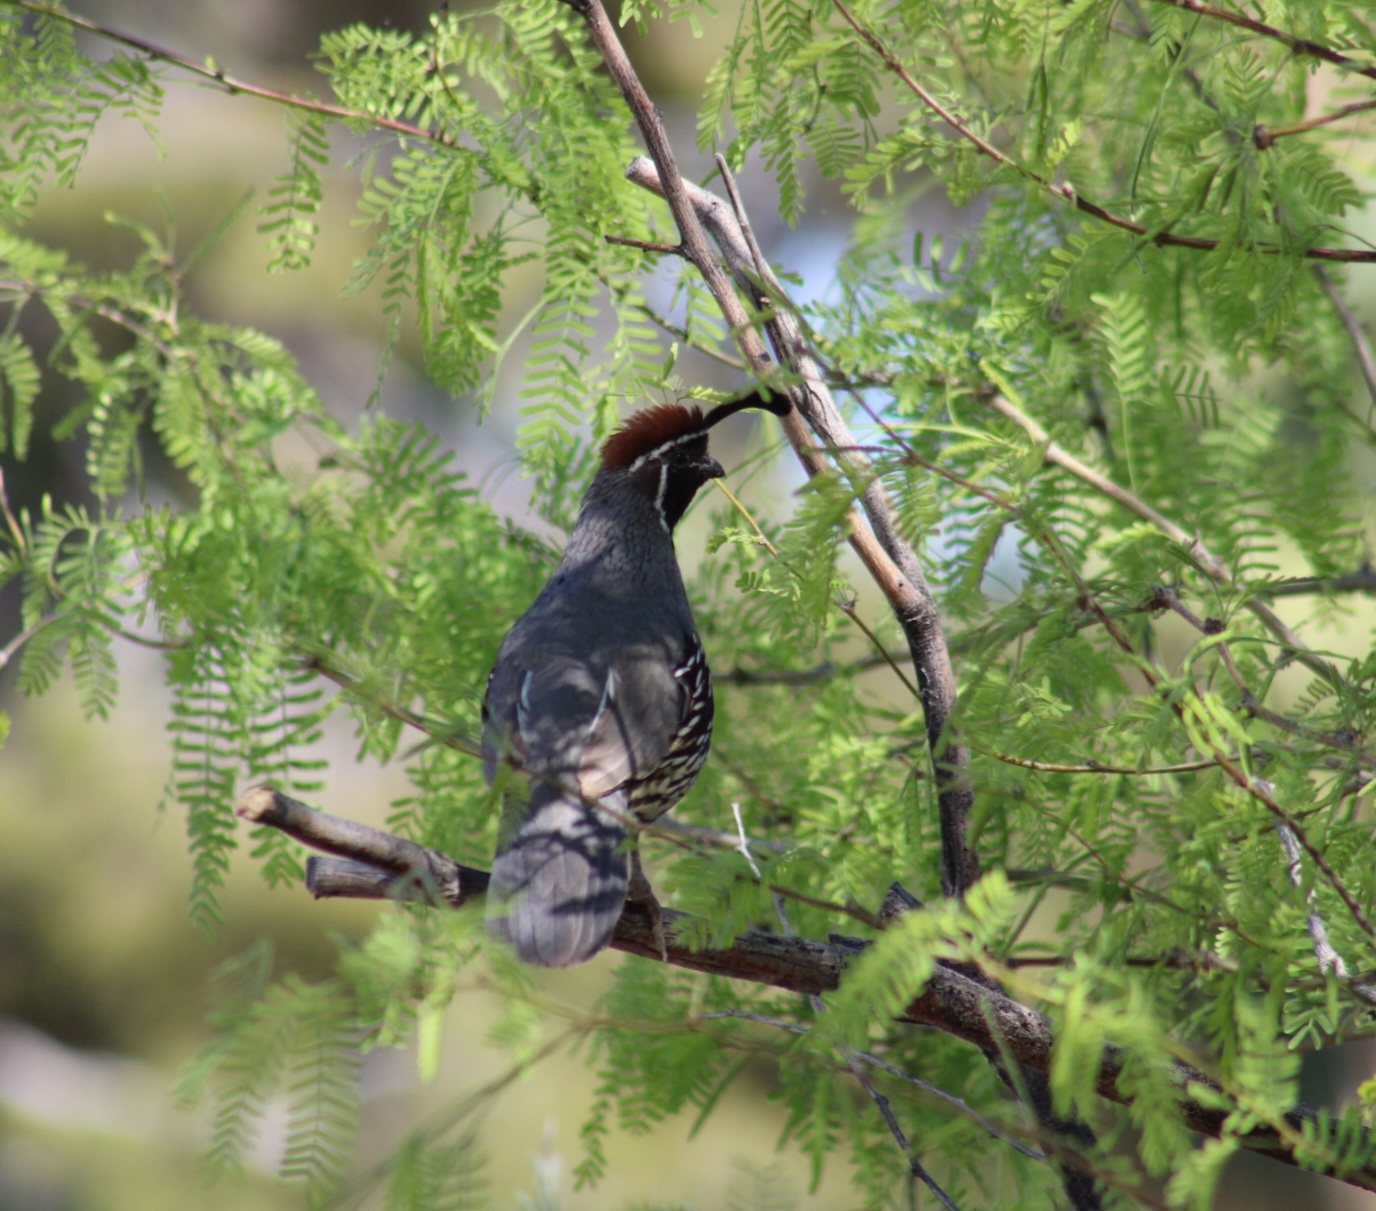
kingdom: Animalia
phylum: Chordata
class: Aves
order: Galliformes
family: Odontophoridae
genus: Callipepla
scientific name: Callipepla gambelii
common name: Gambel's quail
